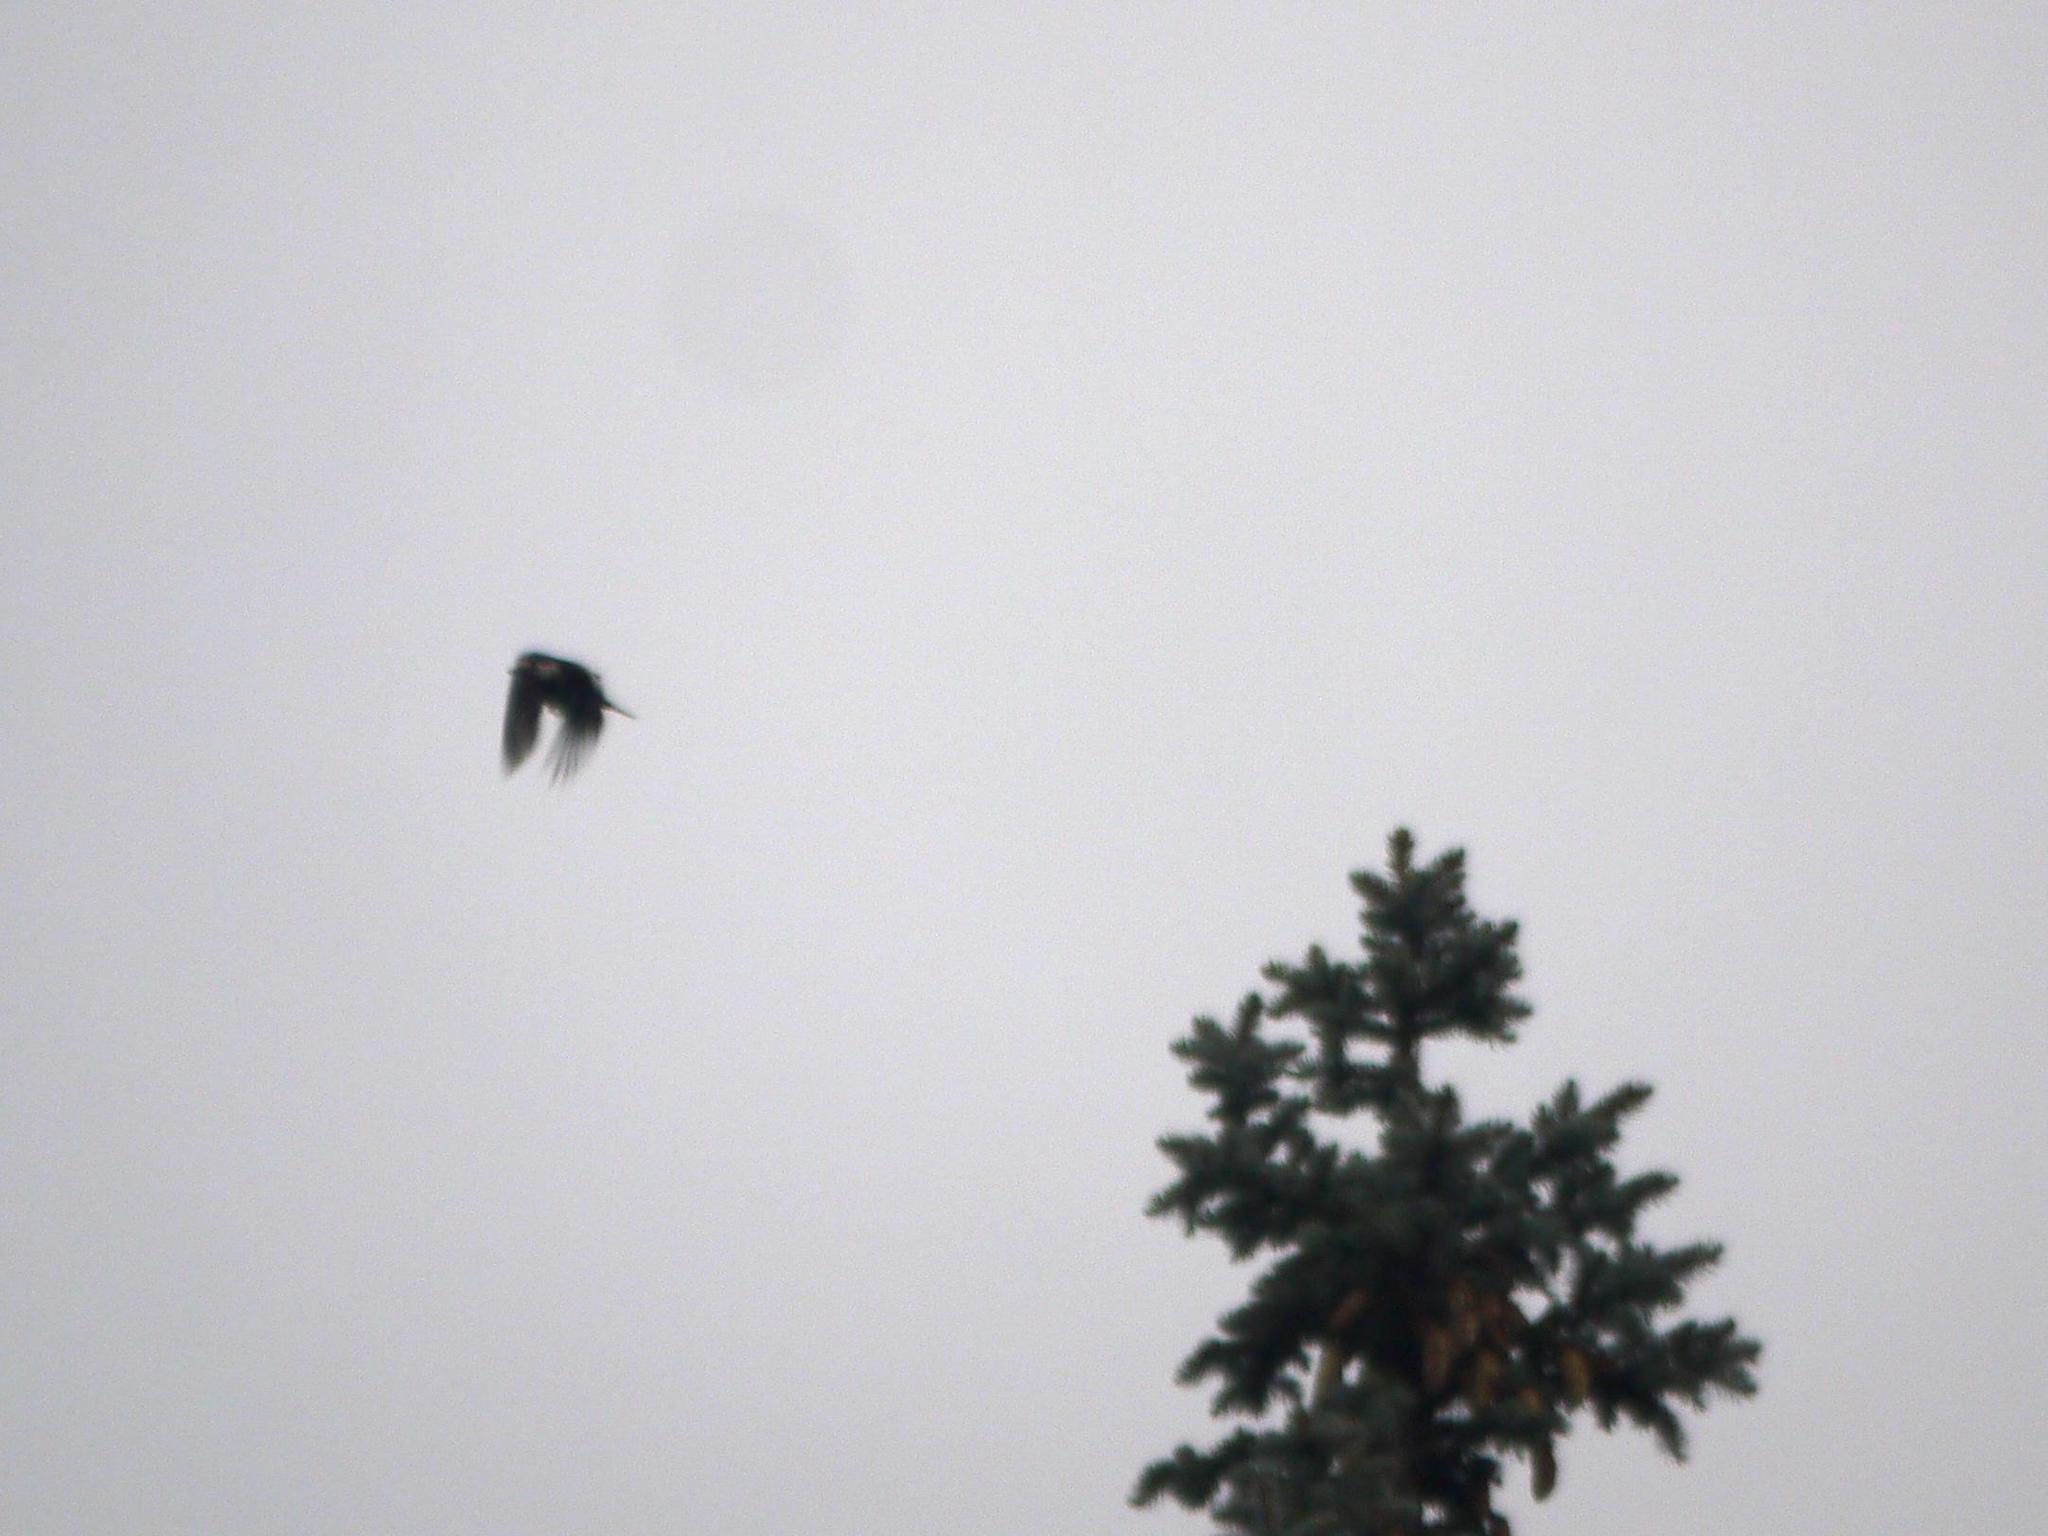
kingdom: Animalia
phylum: Chordata
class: Aves
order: Piciformes
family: Picidae
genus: Dendrocopos
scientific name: Dendrocopos major
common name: Great spotted woodpecker
